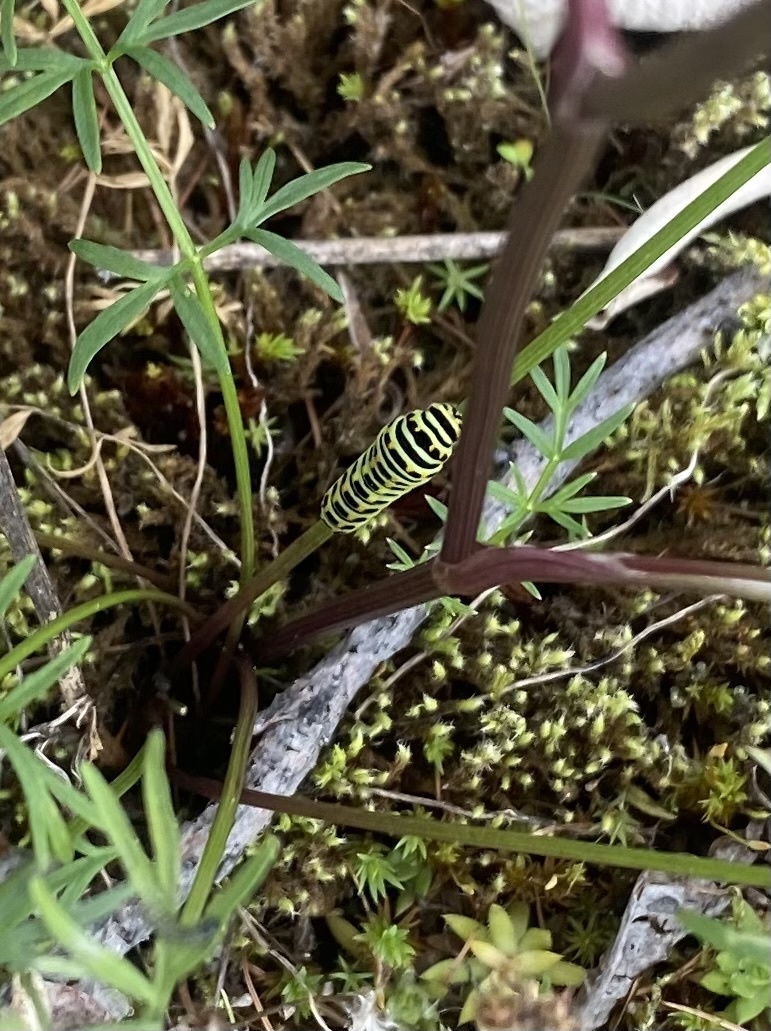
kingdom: Animalia
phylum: Arthropoda
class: Insecta
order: Lepidoptera
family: Papilionidae
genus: Papilio
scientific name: Papilio machaon
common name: Swallowtail
